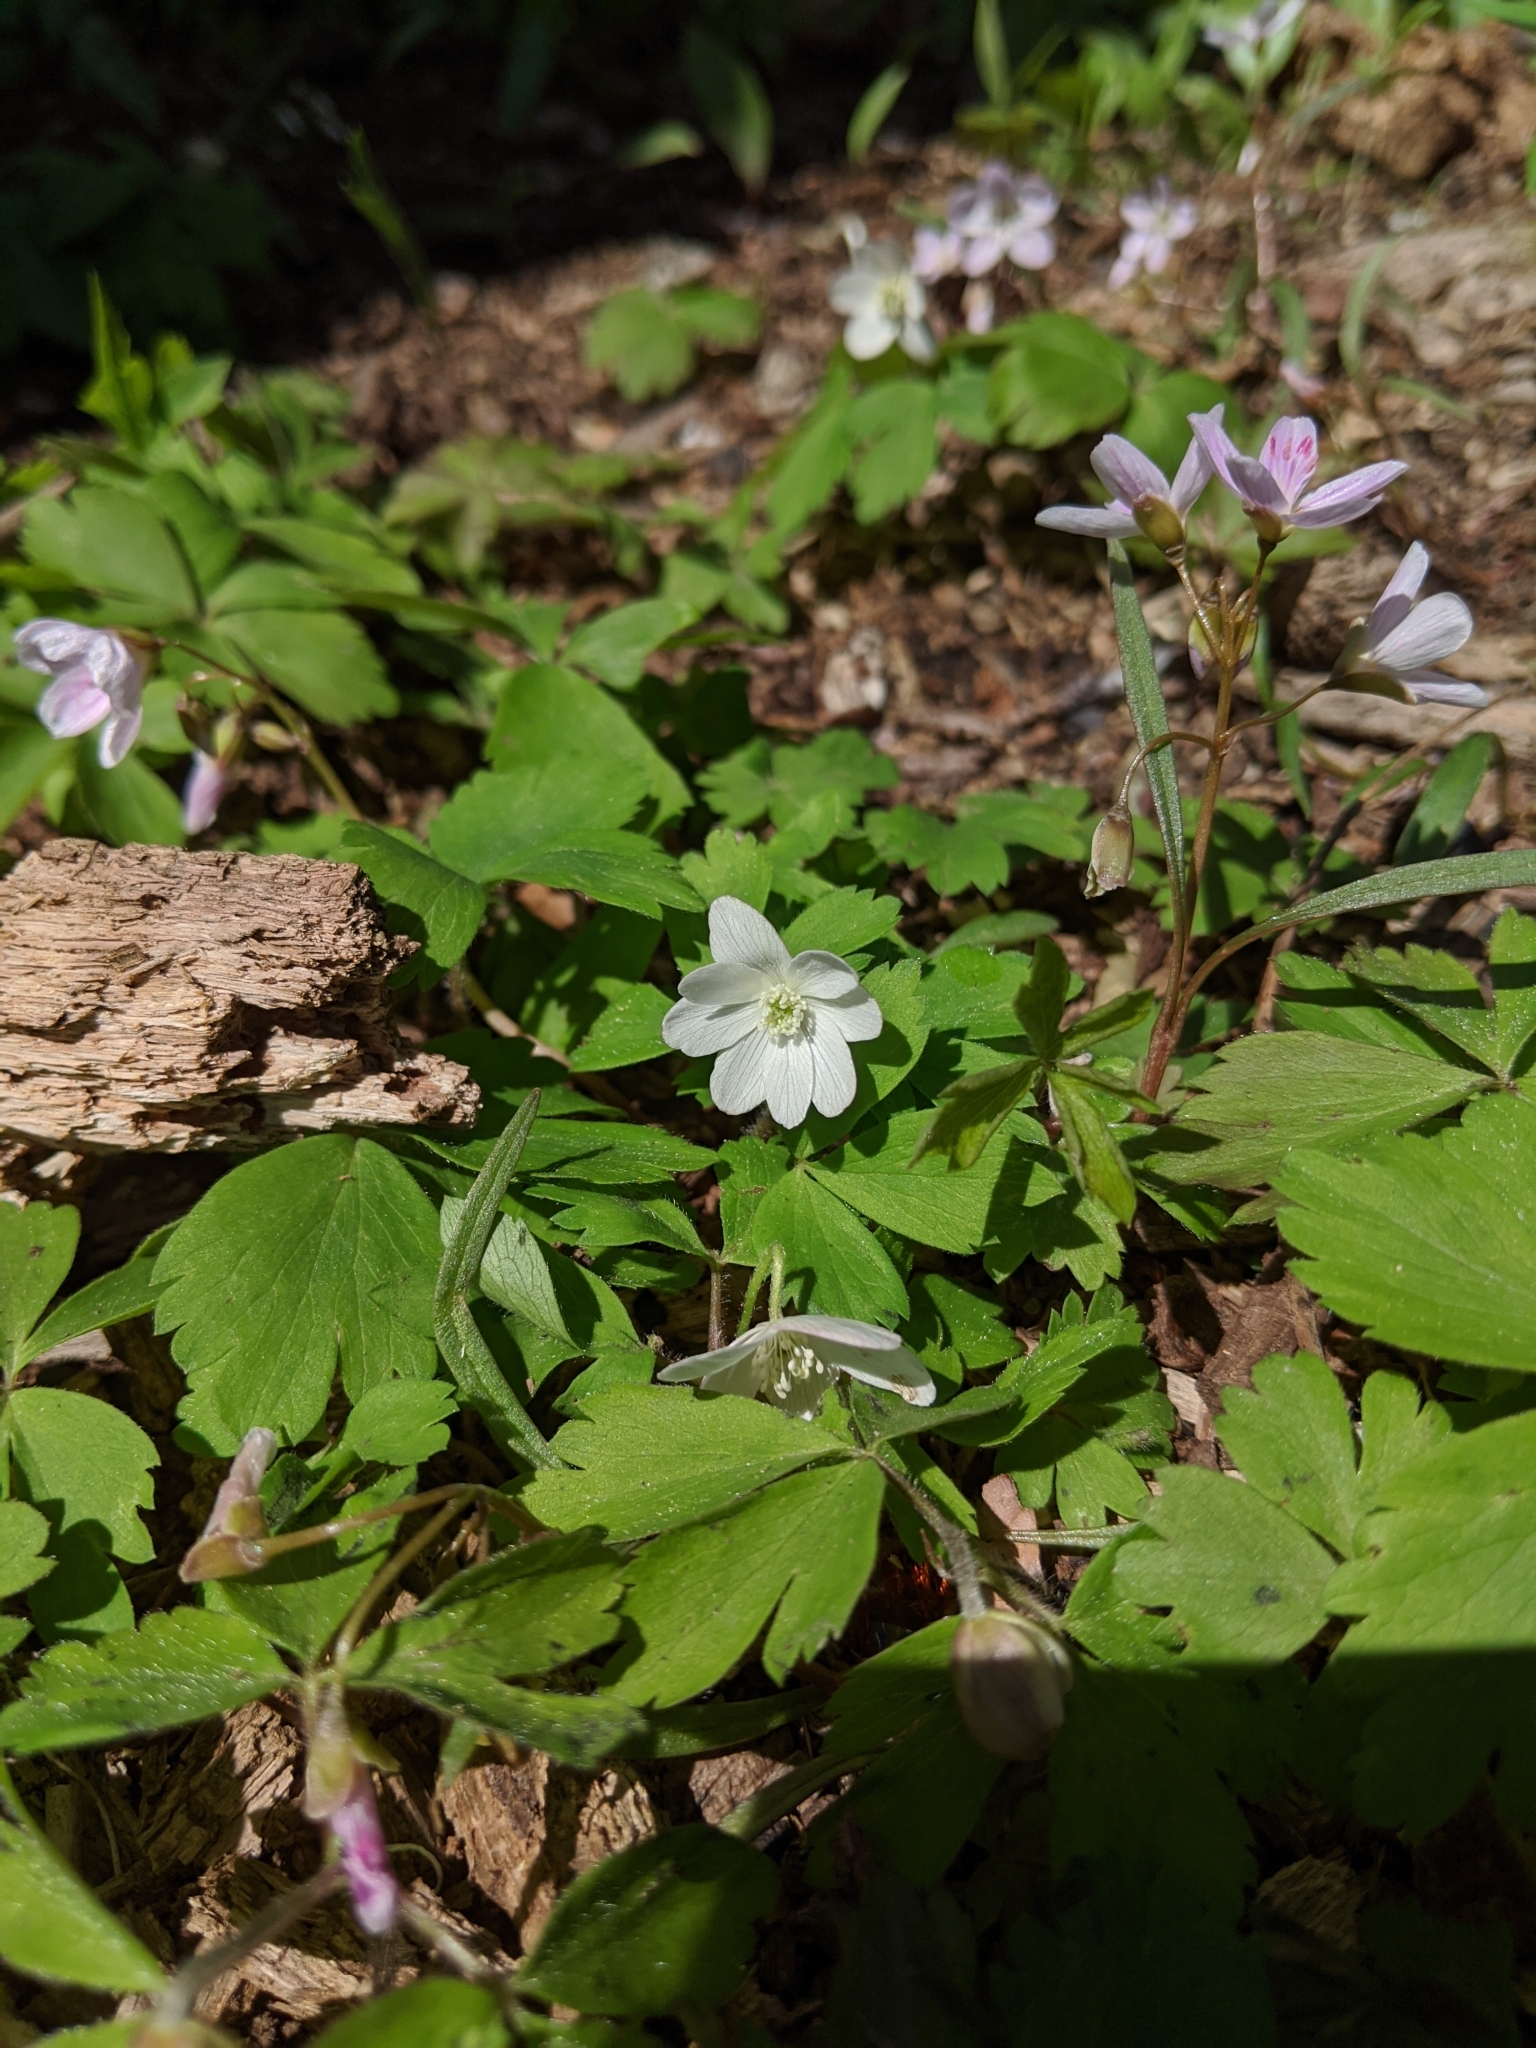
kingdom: Plantae
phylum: Tracheophyta
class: Magnoliopsida
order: Ranunculales
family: Ranunculaceae
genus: Anemone
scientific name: Anemone quinquefolia
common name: Wood anemone
